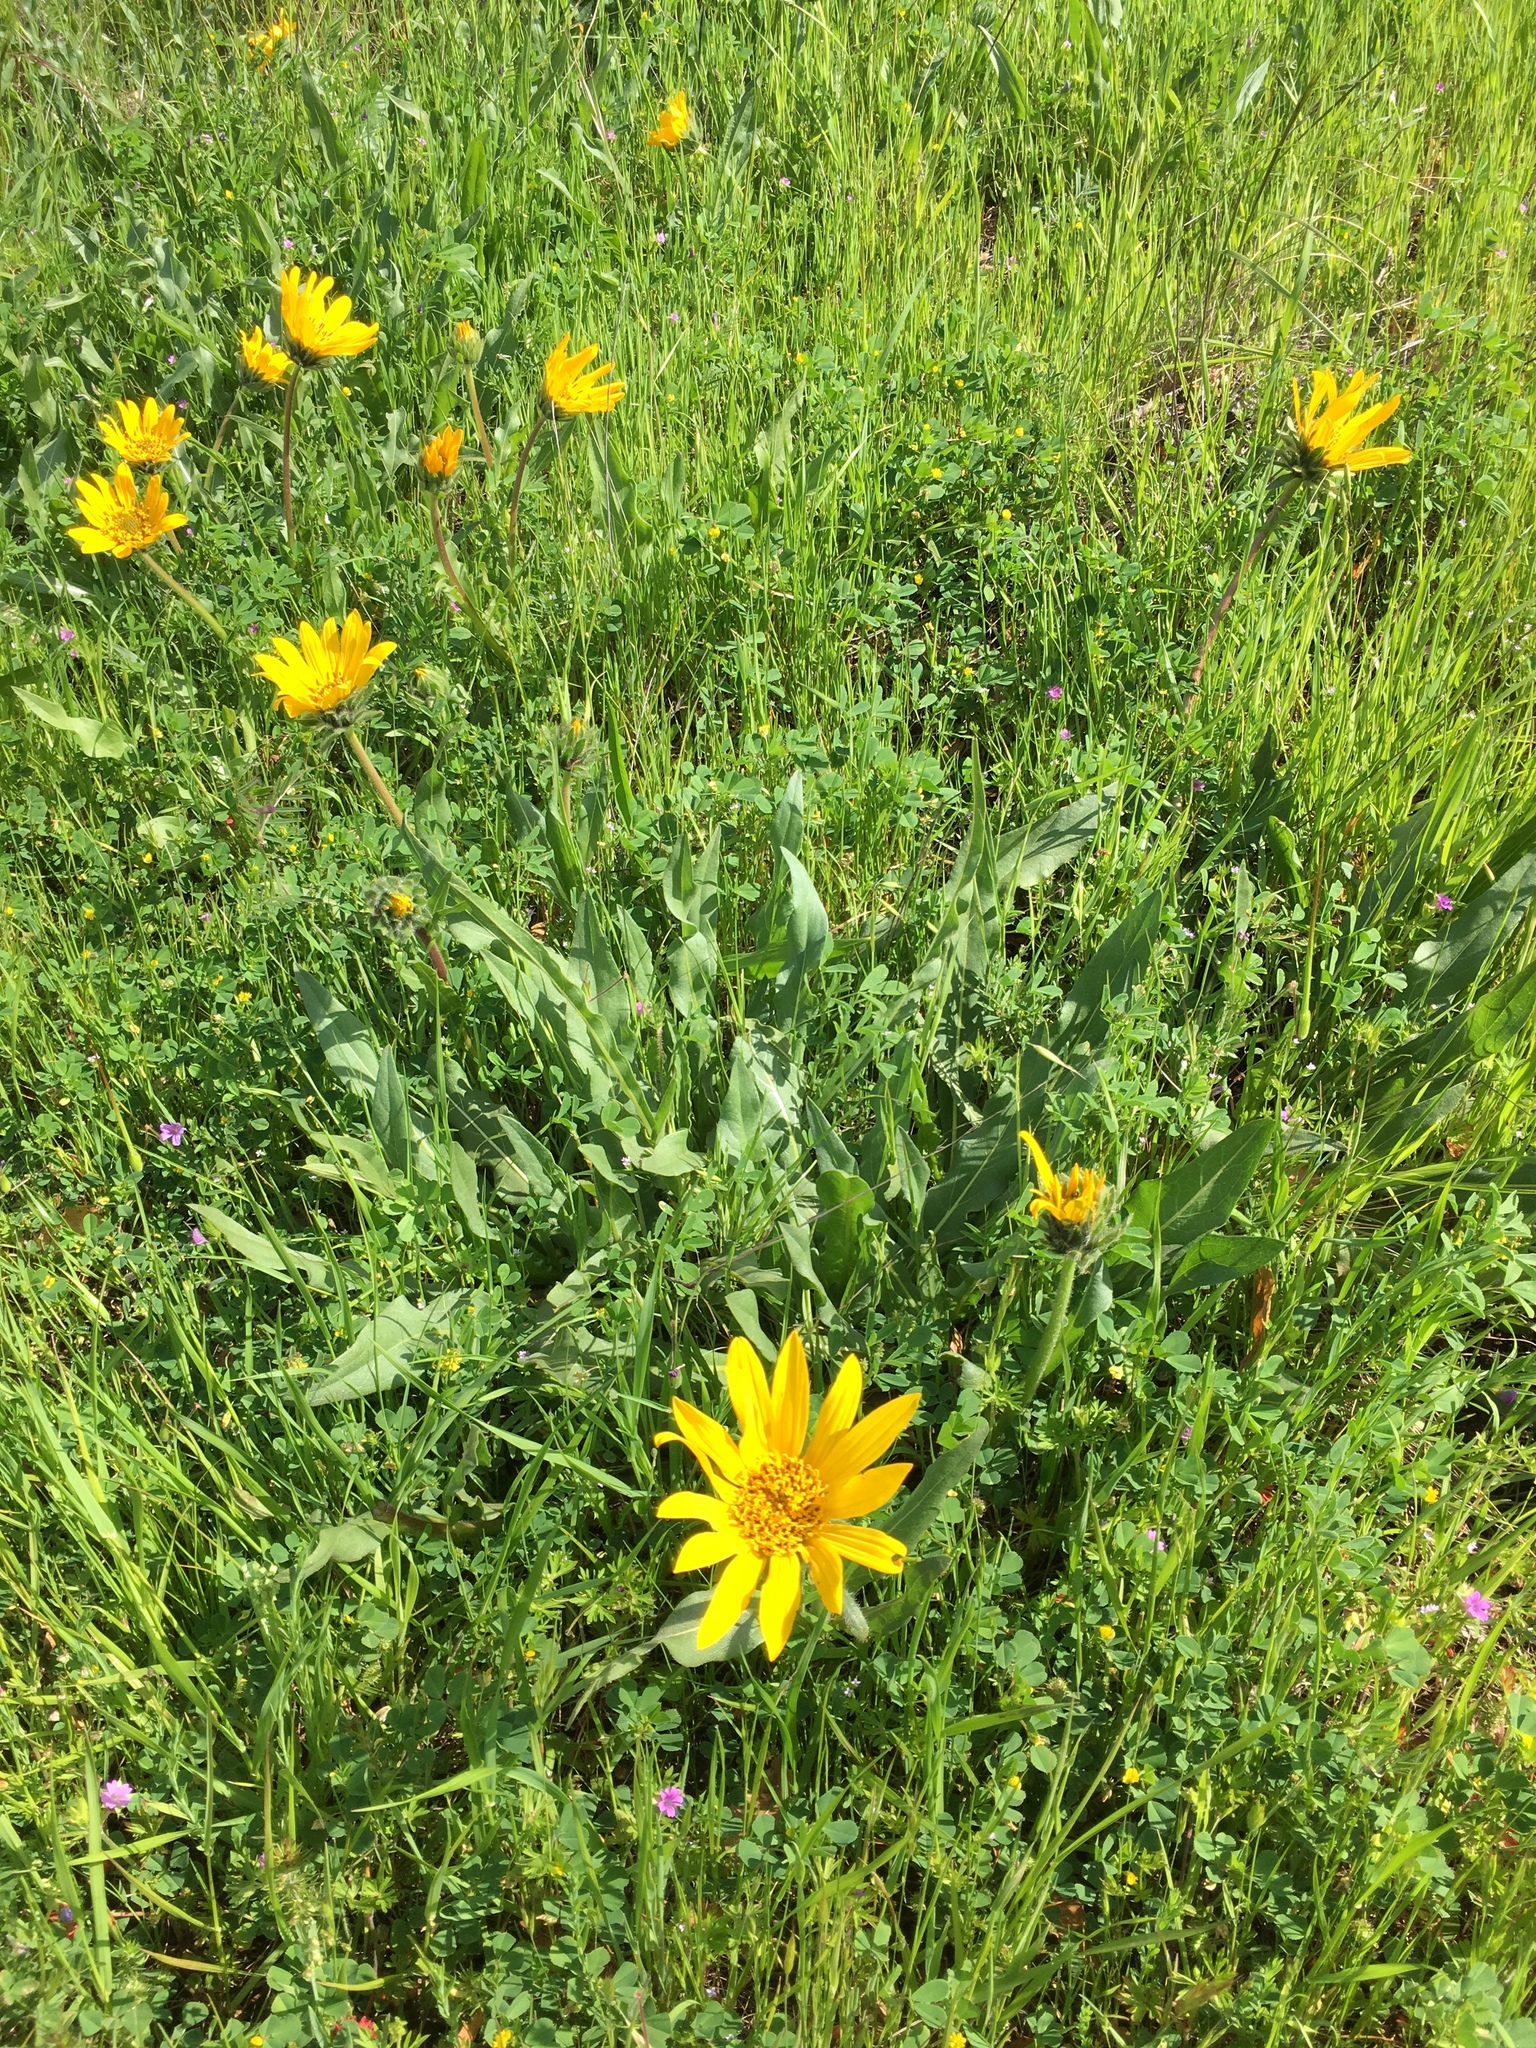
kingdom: Plantae
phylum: Tracheophyta
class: Magnoliopsida
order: Asterales
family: Asteraceae
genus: Wyethia
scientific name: Wyethia angustifolia
